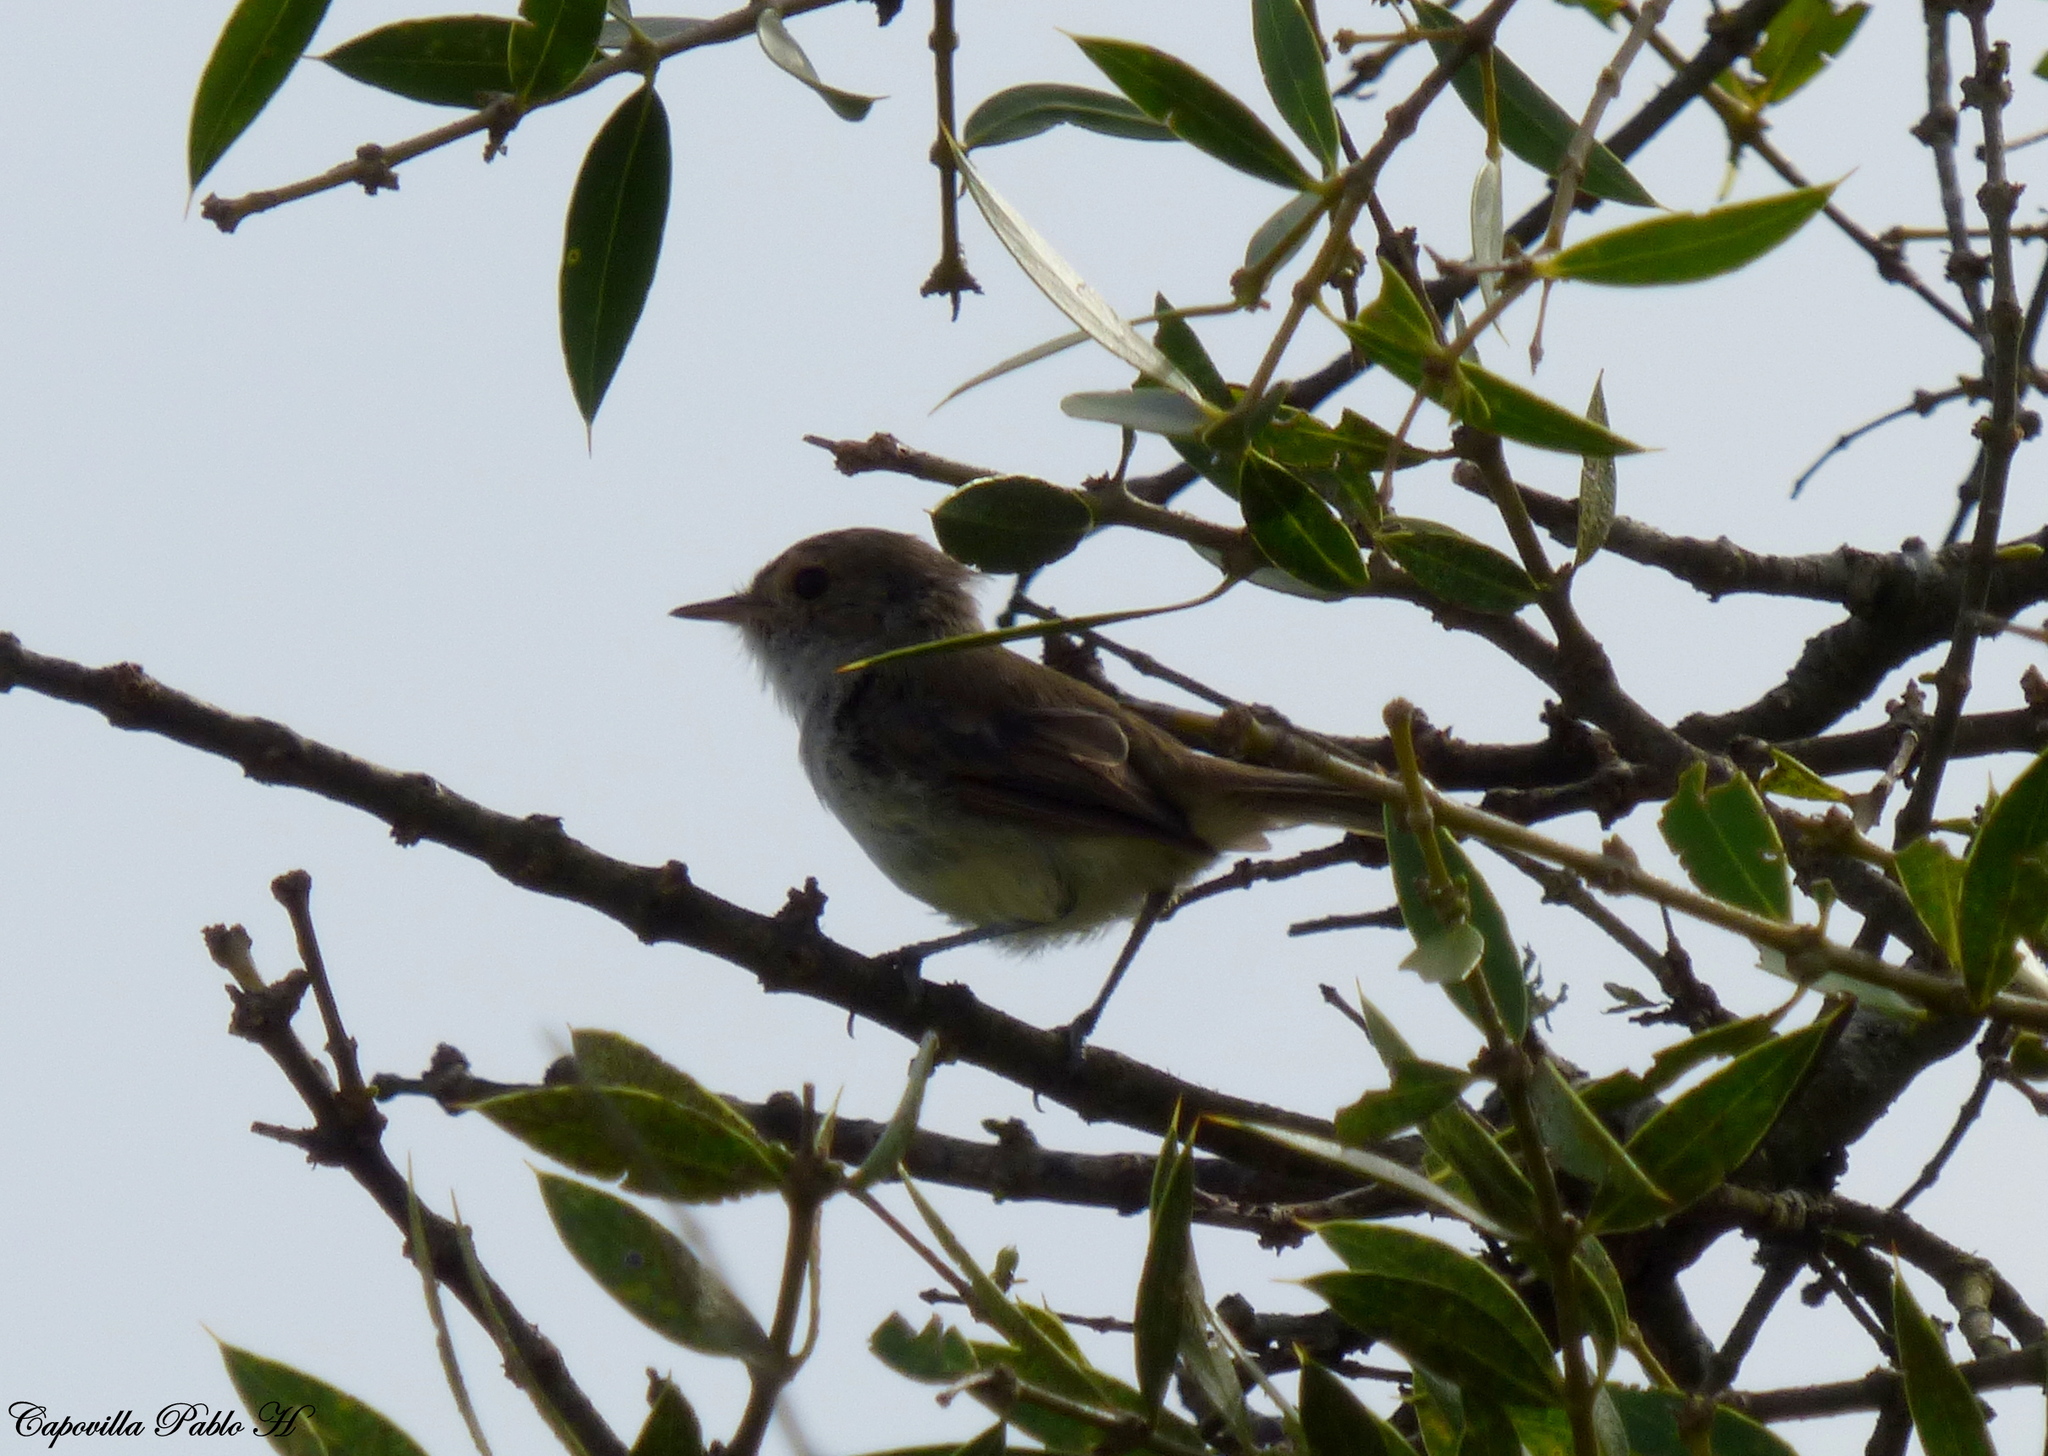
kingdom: Animalia
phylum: Chordata
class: Aves
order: Passeriformes
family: Tyrannidae
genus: Euscarthmus
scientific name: Euscarthmus meloryphus
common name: Tawny-crowned pygmy tyrant
